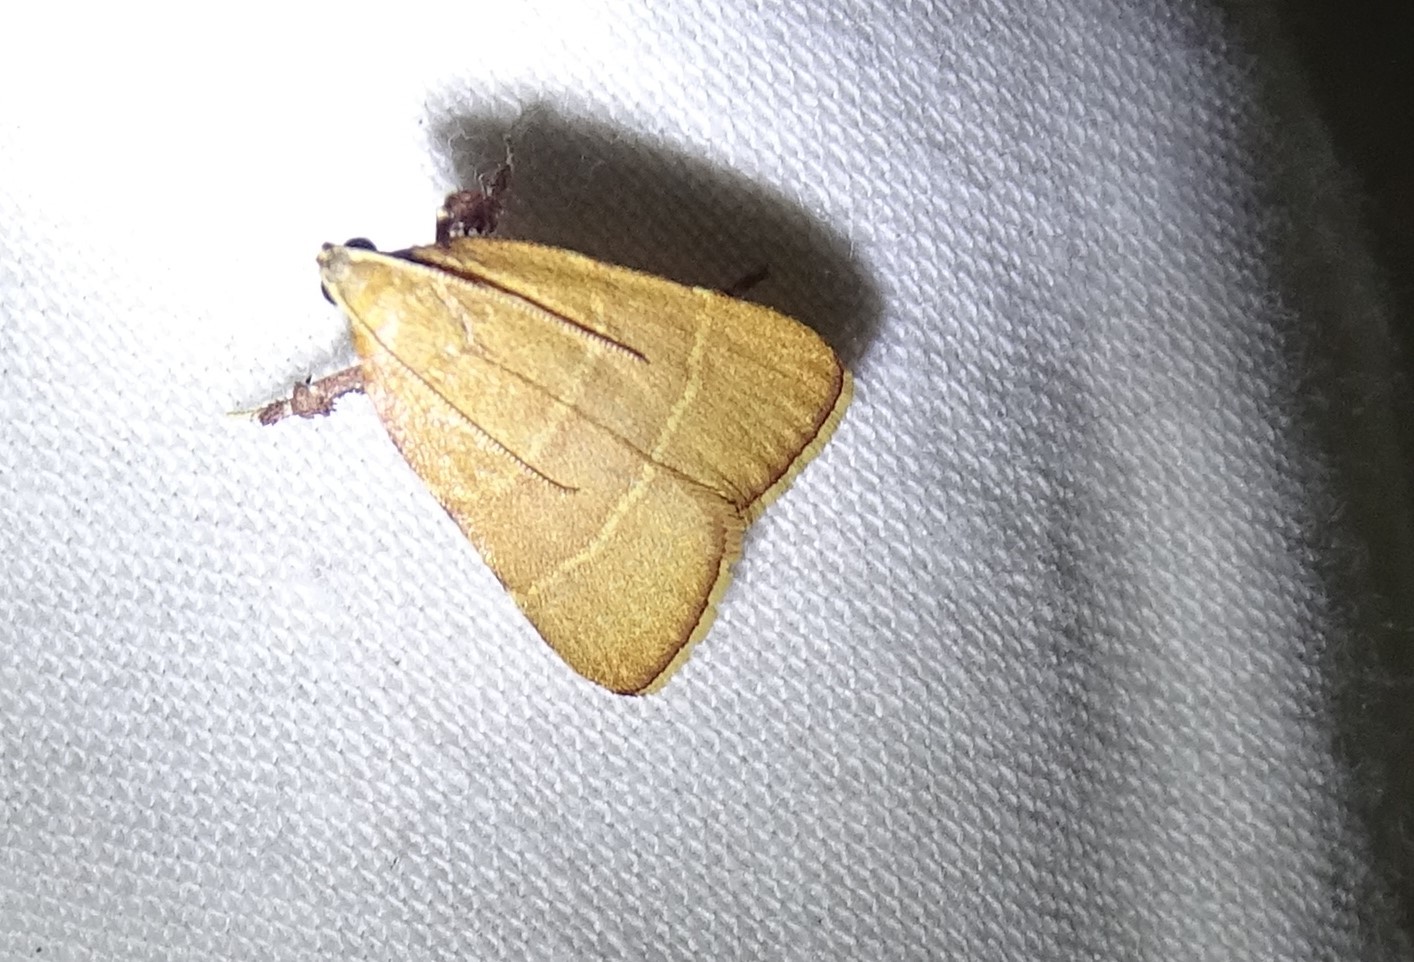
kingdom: Animalia
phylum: Arthropoda
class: Insecta
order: Lepidoptera
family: Pyralidae
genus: Parachma
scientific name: Parachma ochracealis
